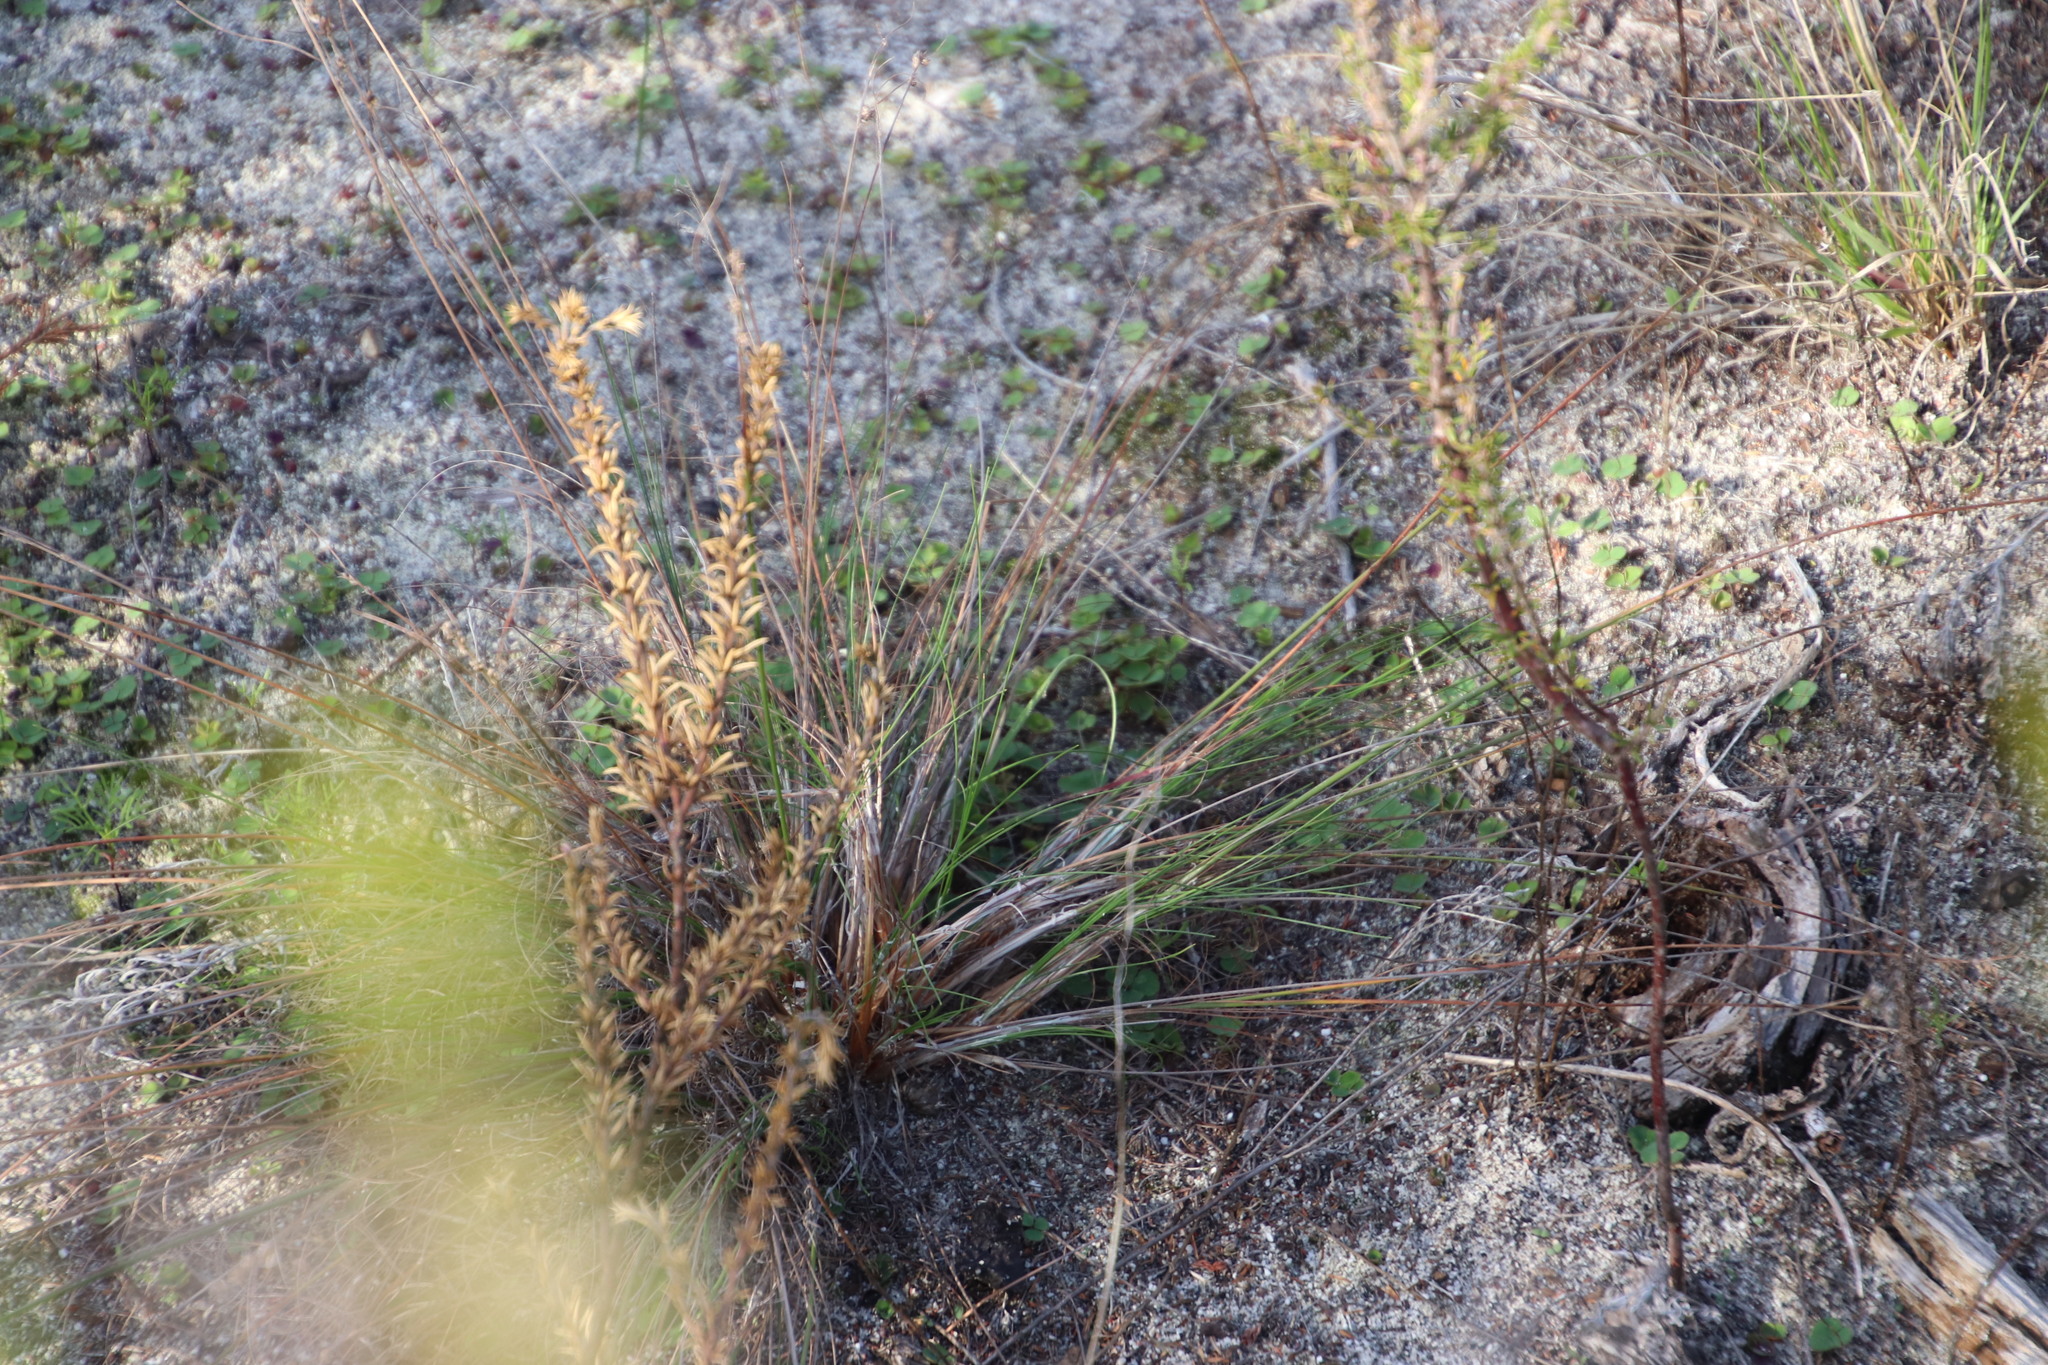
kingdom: Plantae
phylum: Tracheophyta
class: Liliopsida
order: Poales
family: Cyperaceae
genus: Ficinia
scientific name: Ficinia secunda
